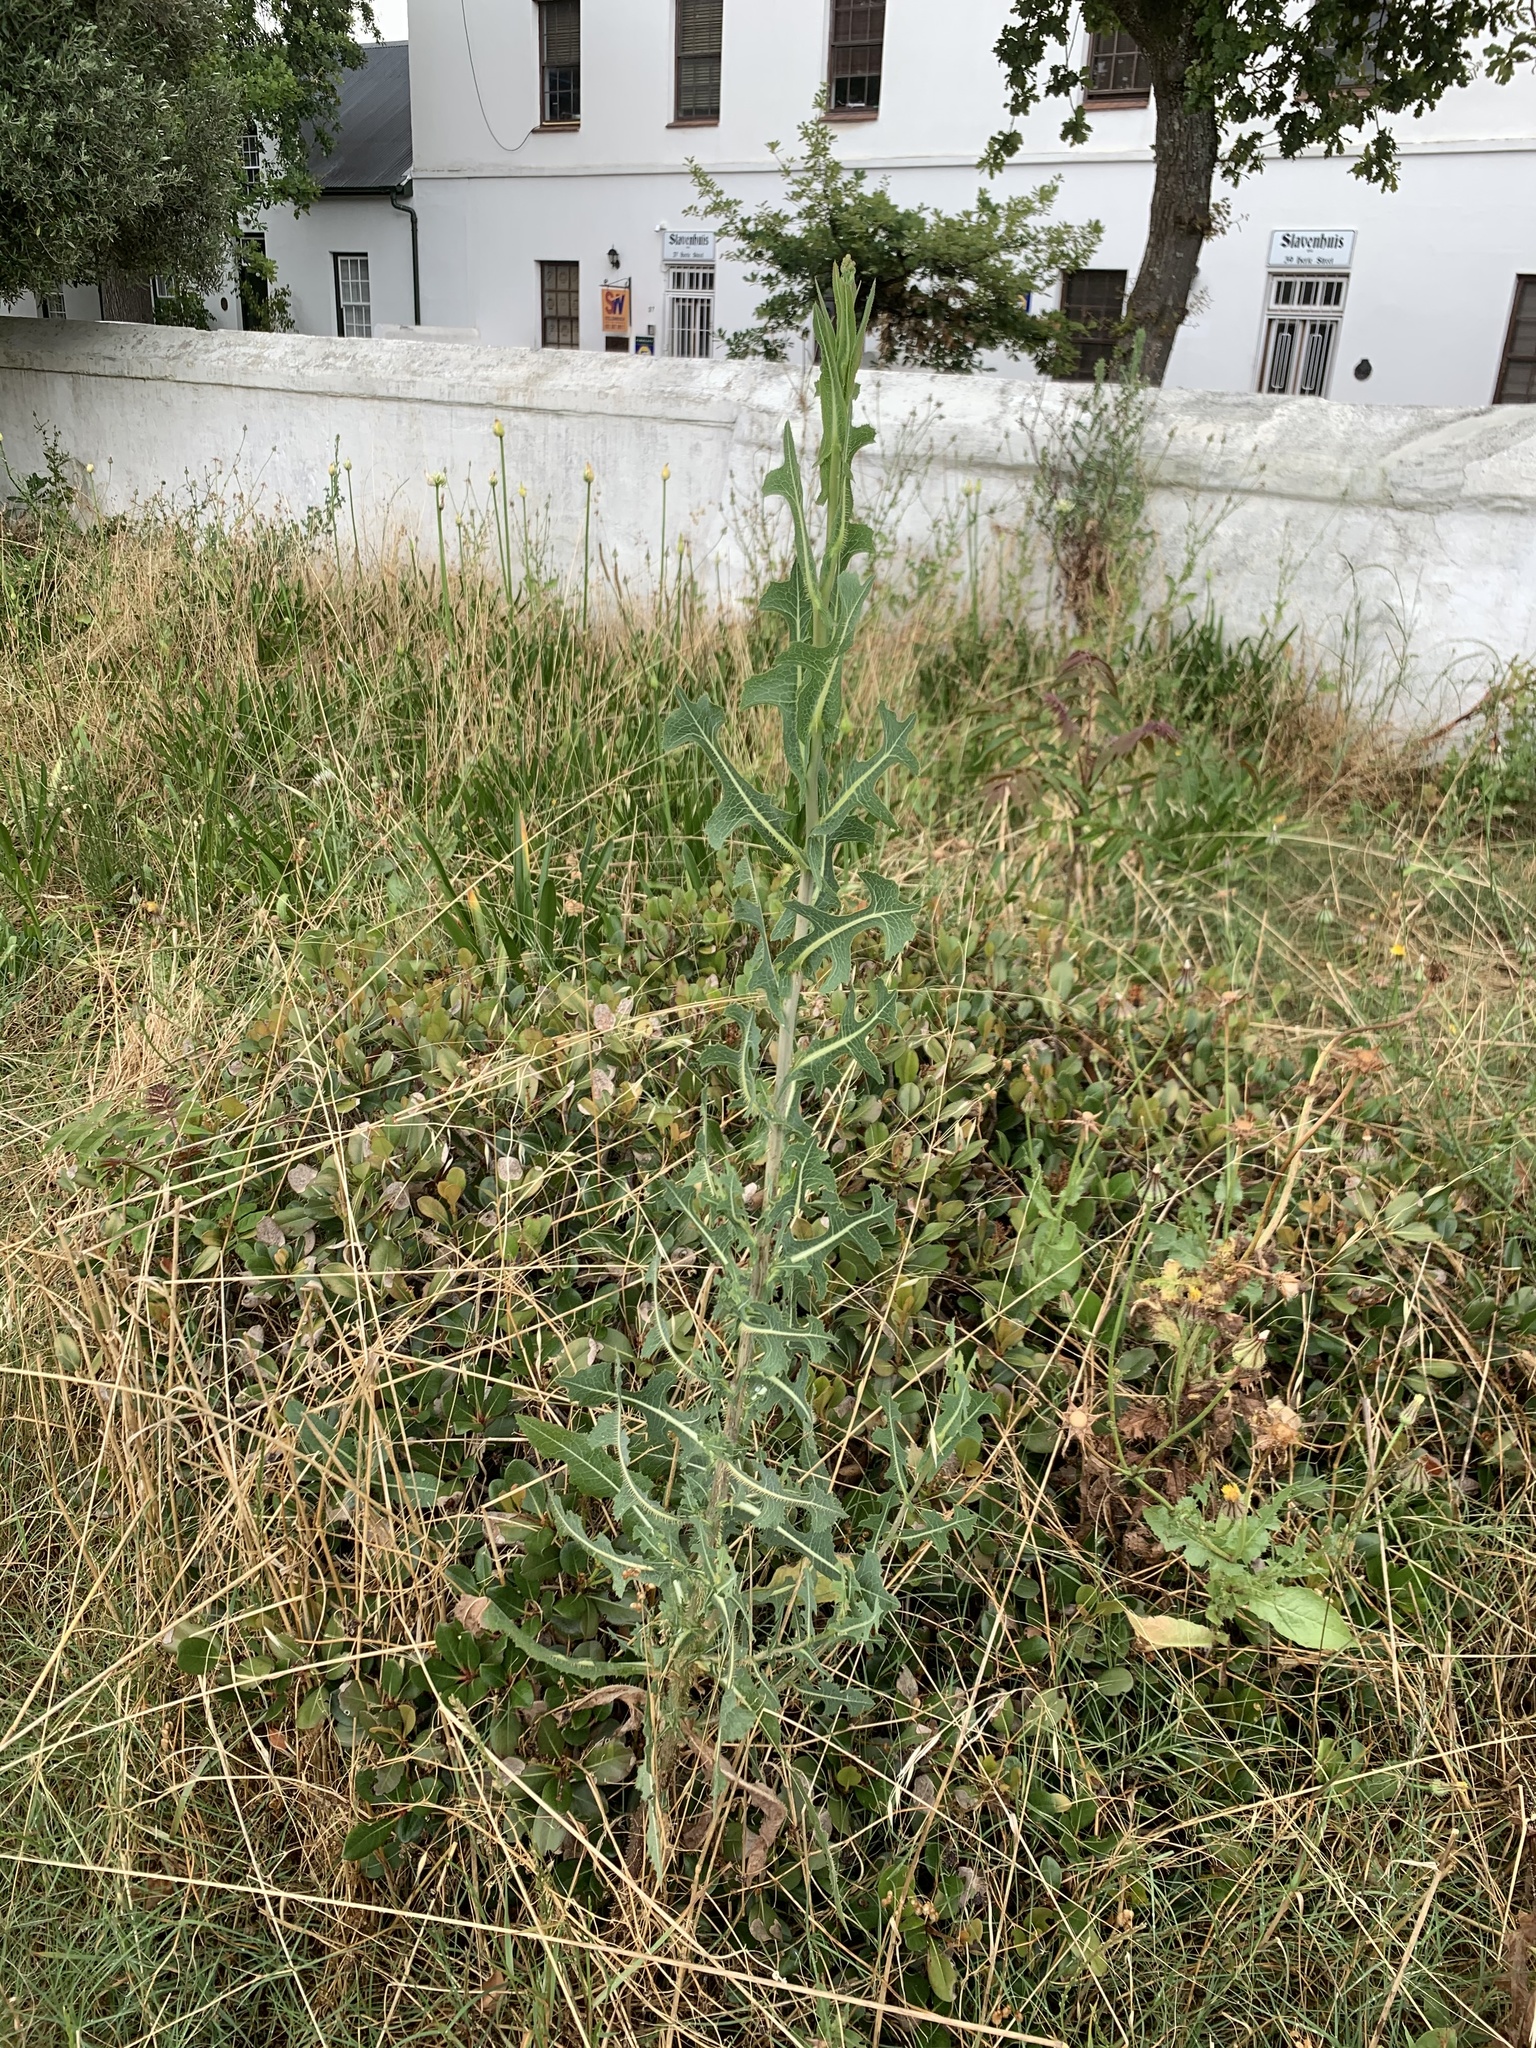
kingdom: Plantae
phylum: Tracheophyta
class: Magnoliopsida
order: Asterales
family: Asteraceae
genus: Lactuca
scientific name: Lactuca serriola
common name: Prickly lettuce
